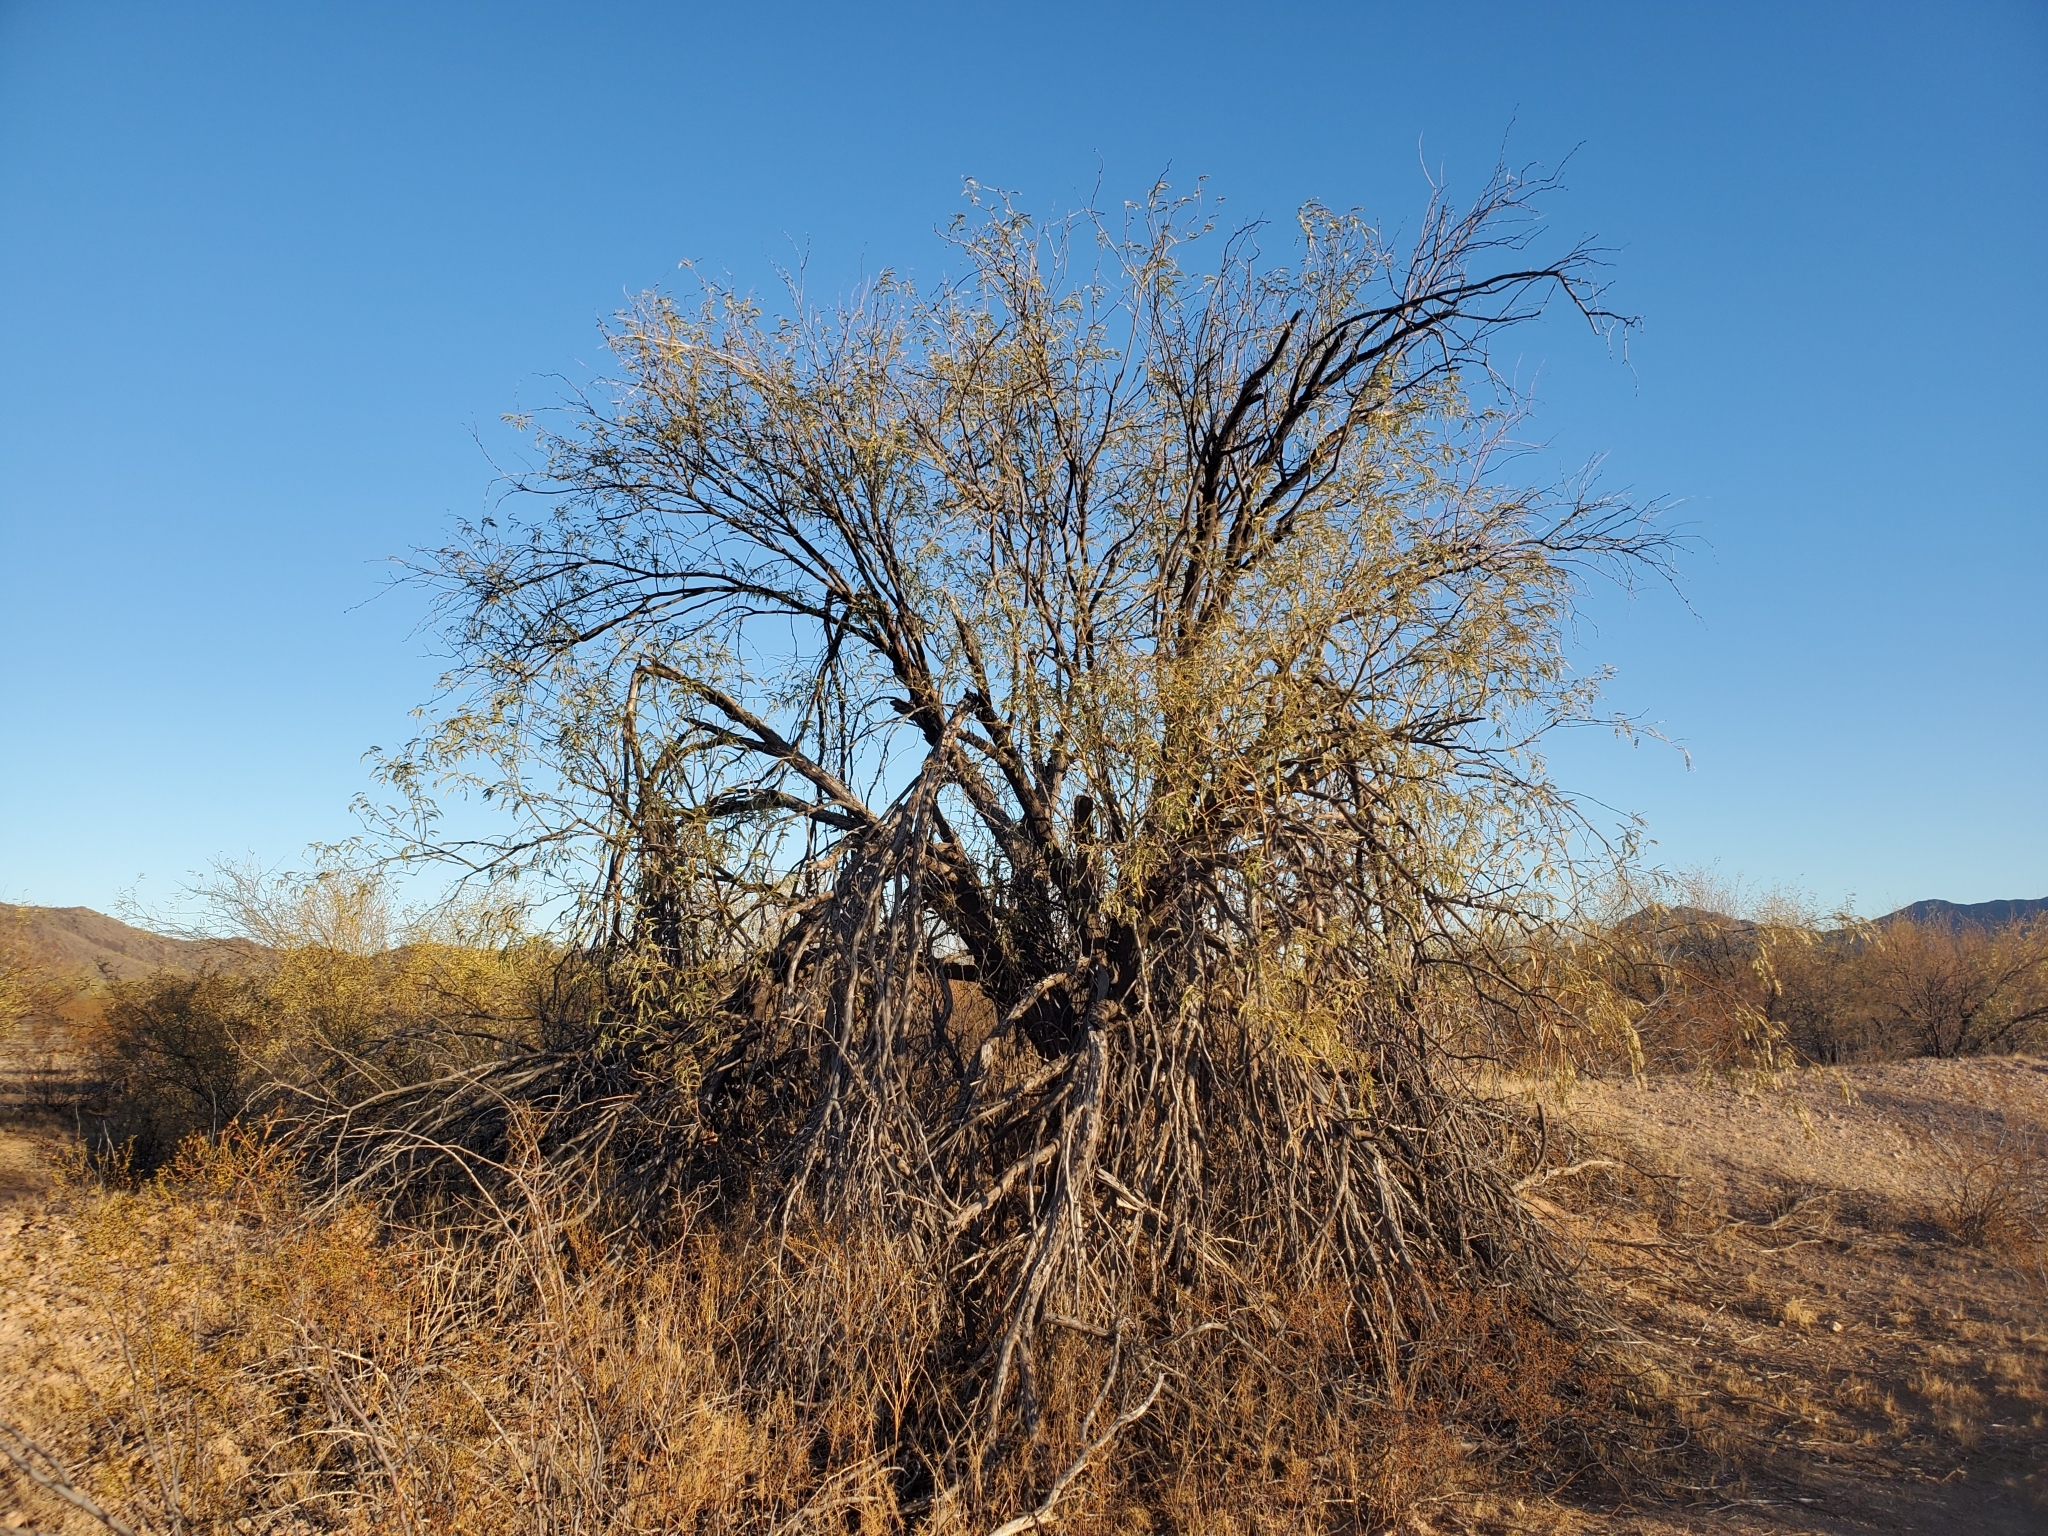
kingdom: Plantae
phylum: Tracheophyta
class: Magnoliopsida
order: Fabales
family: Fabaceae
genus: Prosopis
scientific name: Prosopis velutina
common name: Velvet mesquite
